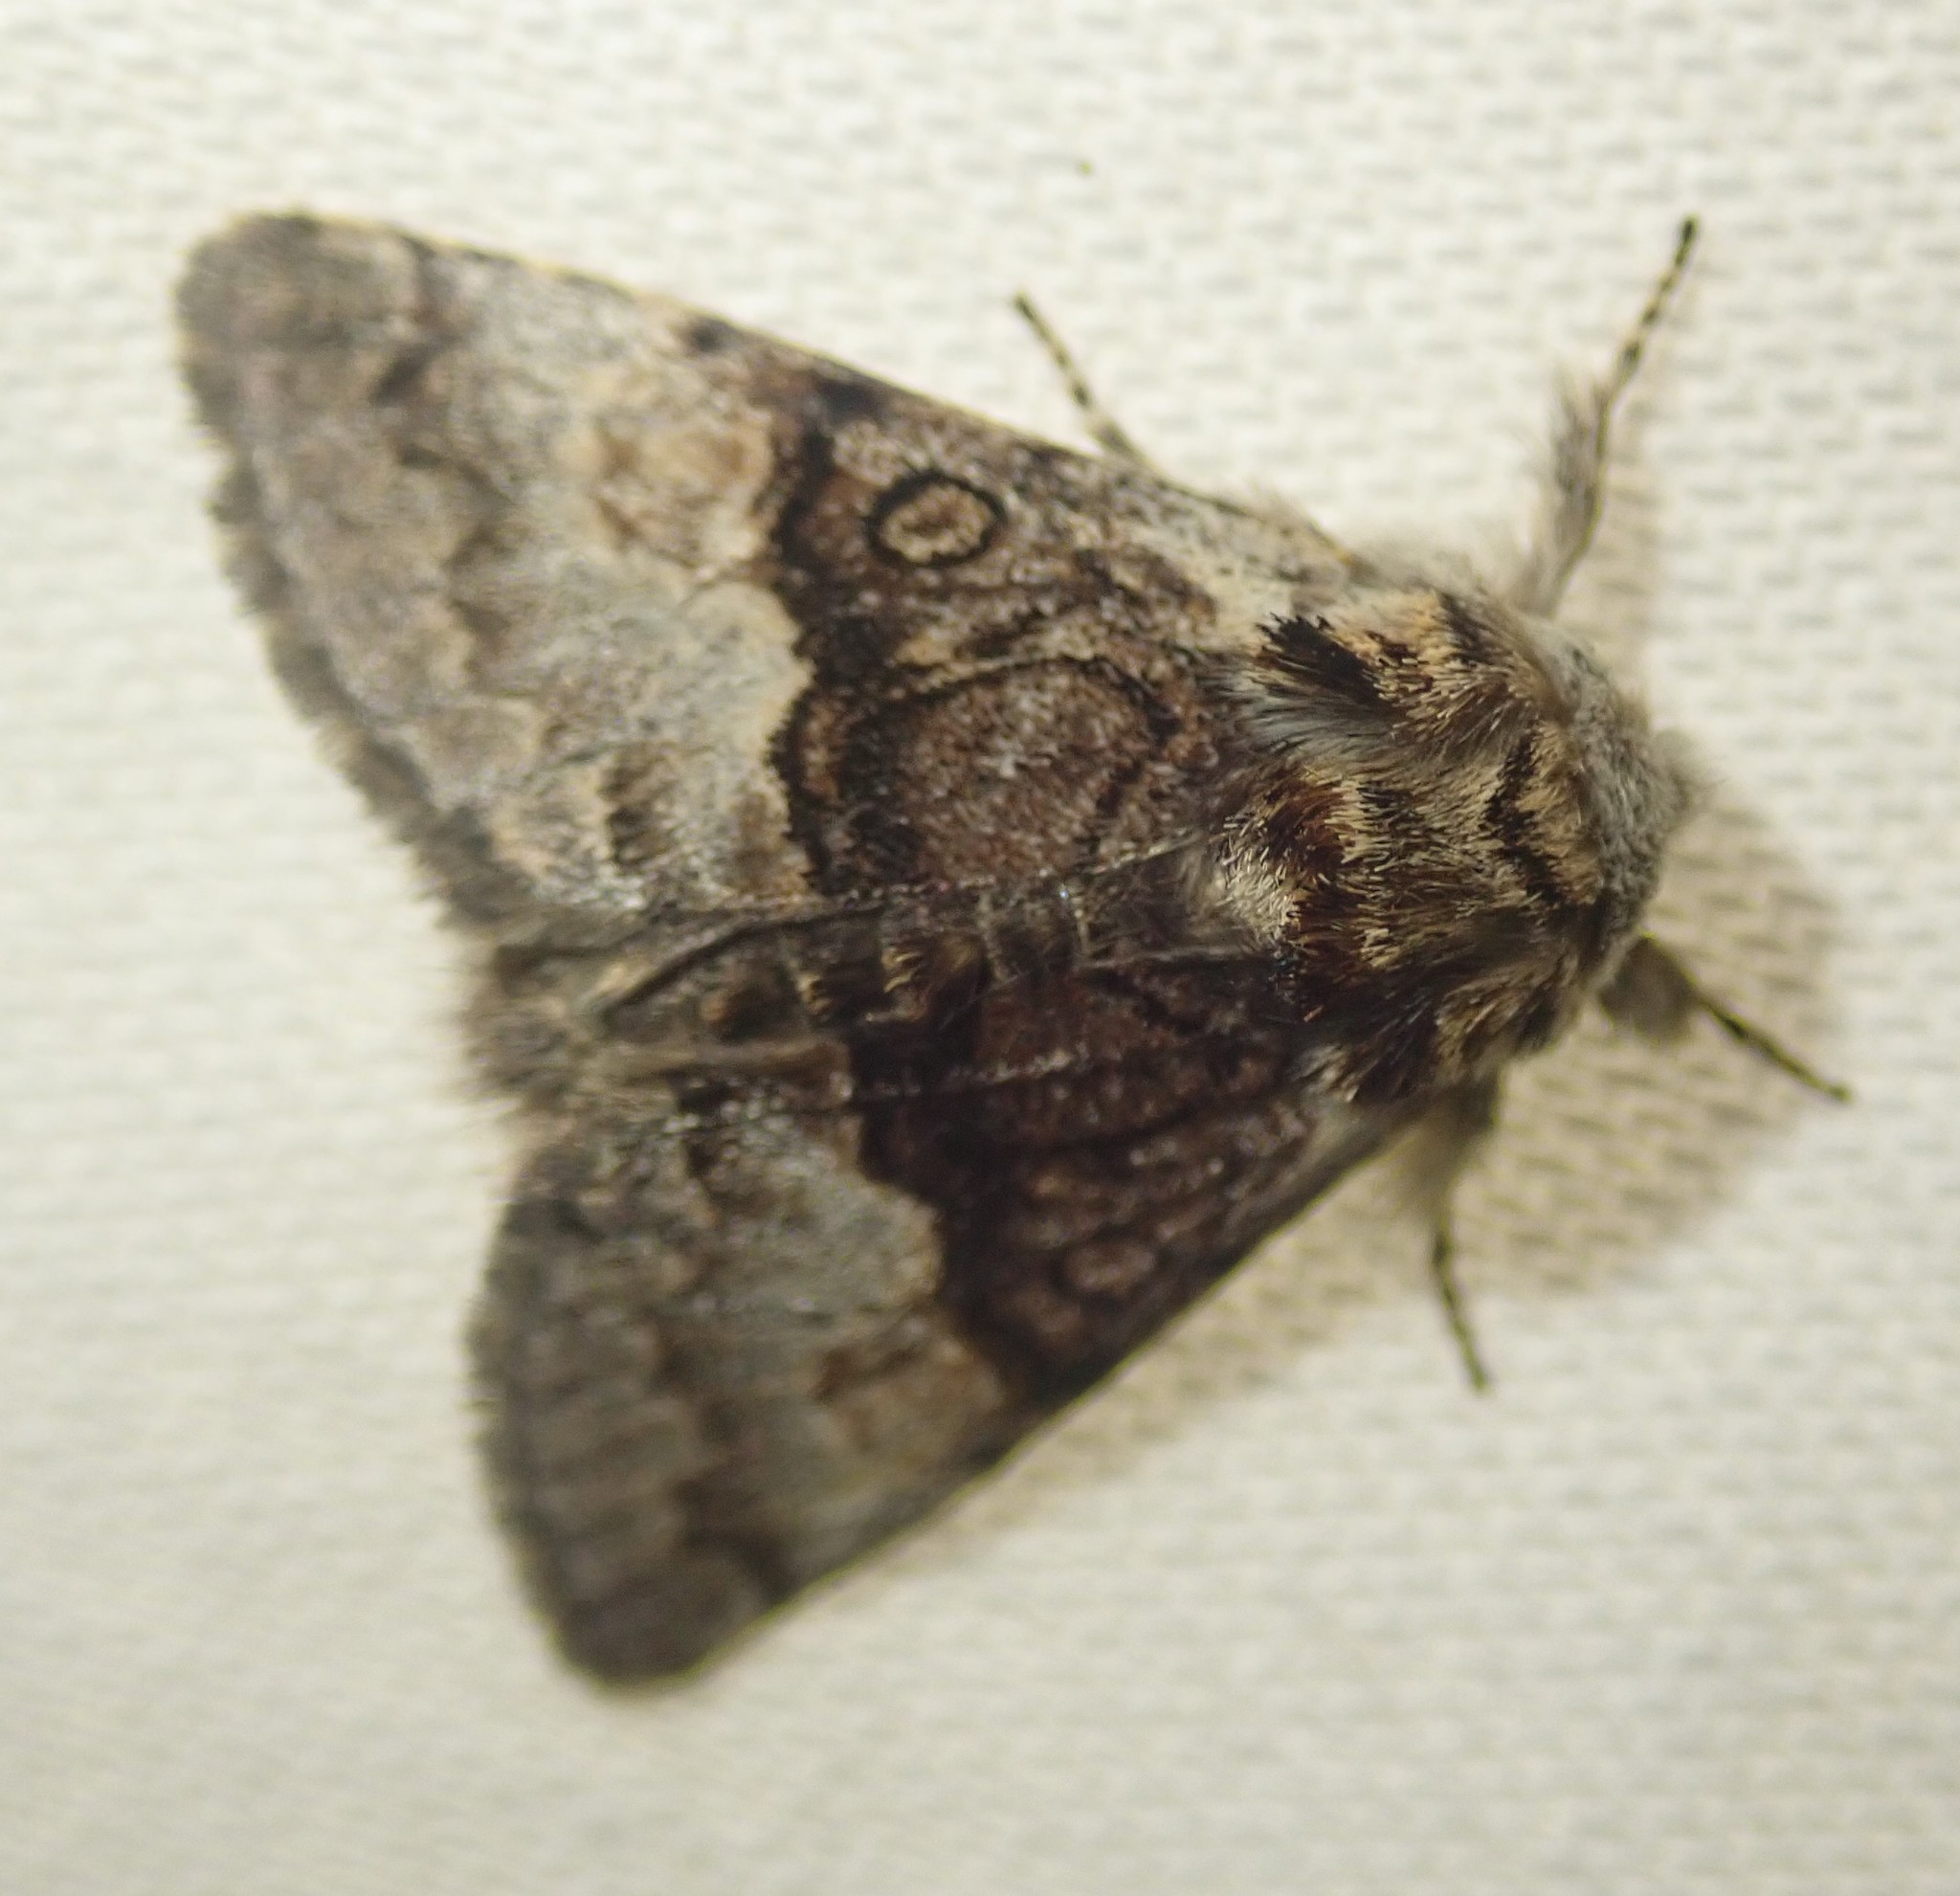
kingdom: Animalia
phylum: Arthropoda
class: Insecta
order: Lepidoptera
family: Noctuidae
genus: Colocasia
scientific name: Colocasia coryli
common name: Nut-tree tussock
